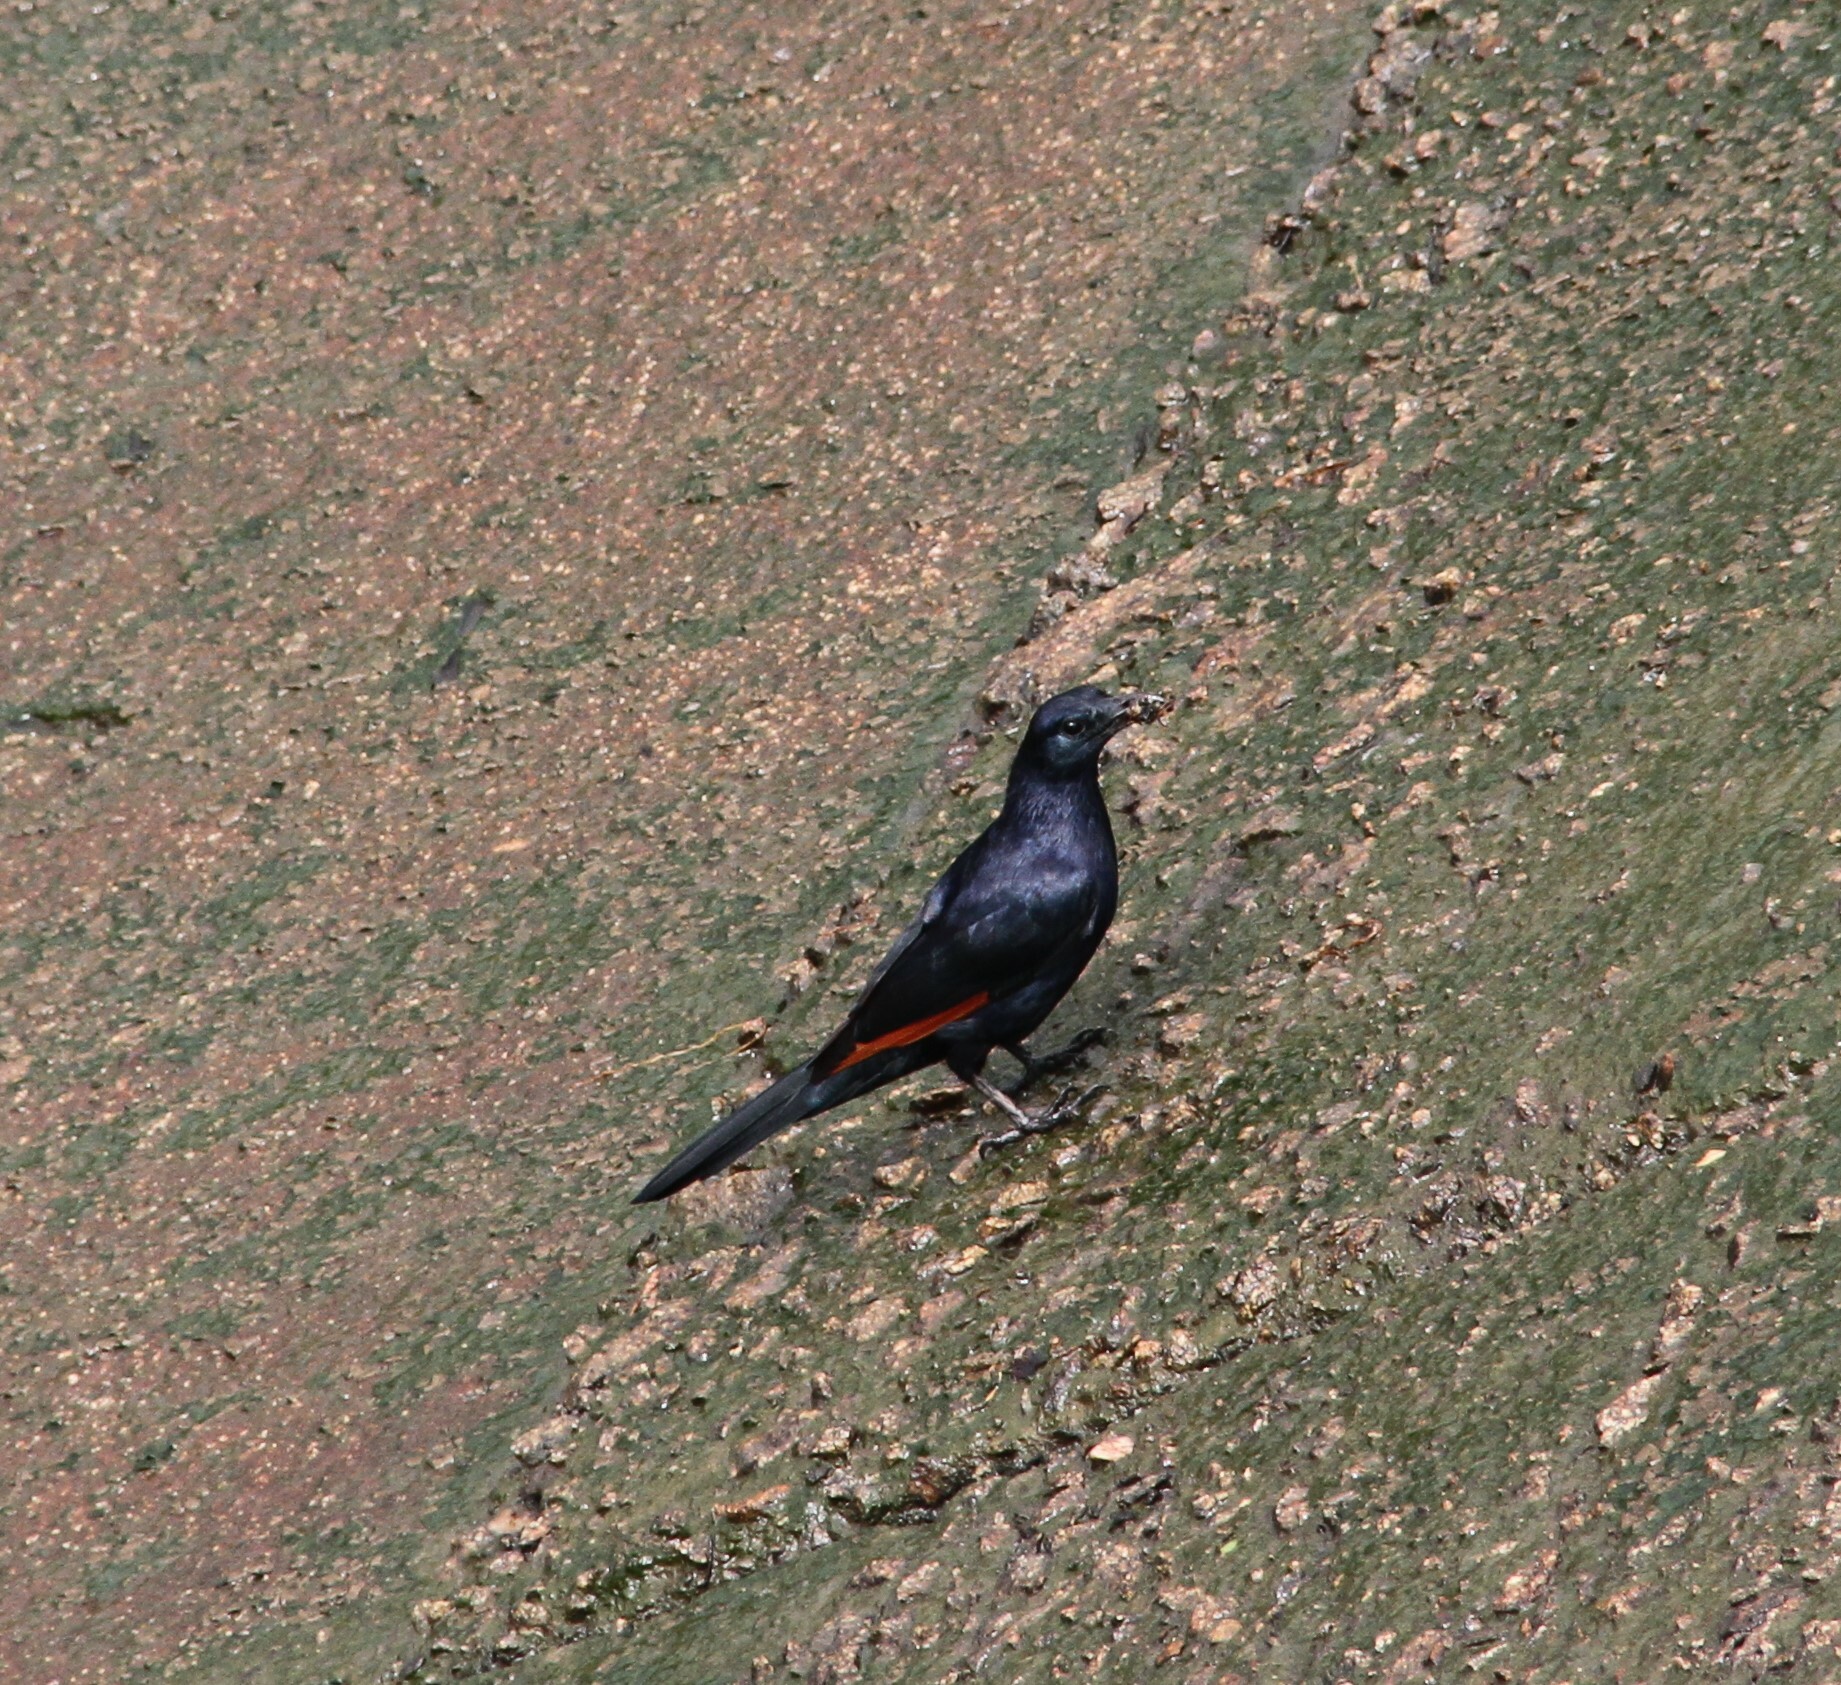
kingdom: Animalia
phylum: Chordata
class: Aves
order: Passeriformes
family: Sturnidae
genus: Onychognathus
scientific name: Onychognathus neumanni
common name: Neumann's starling
